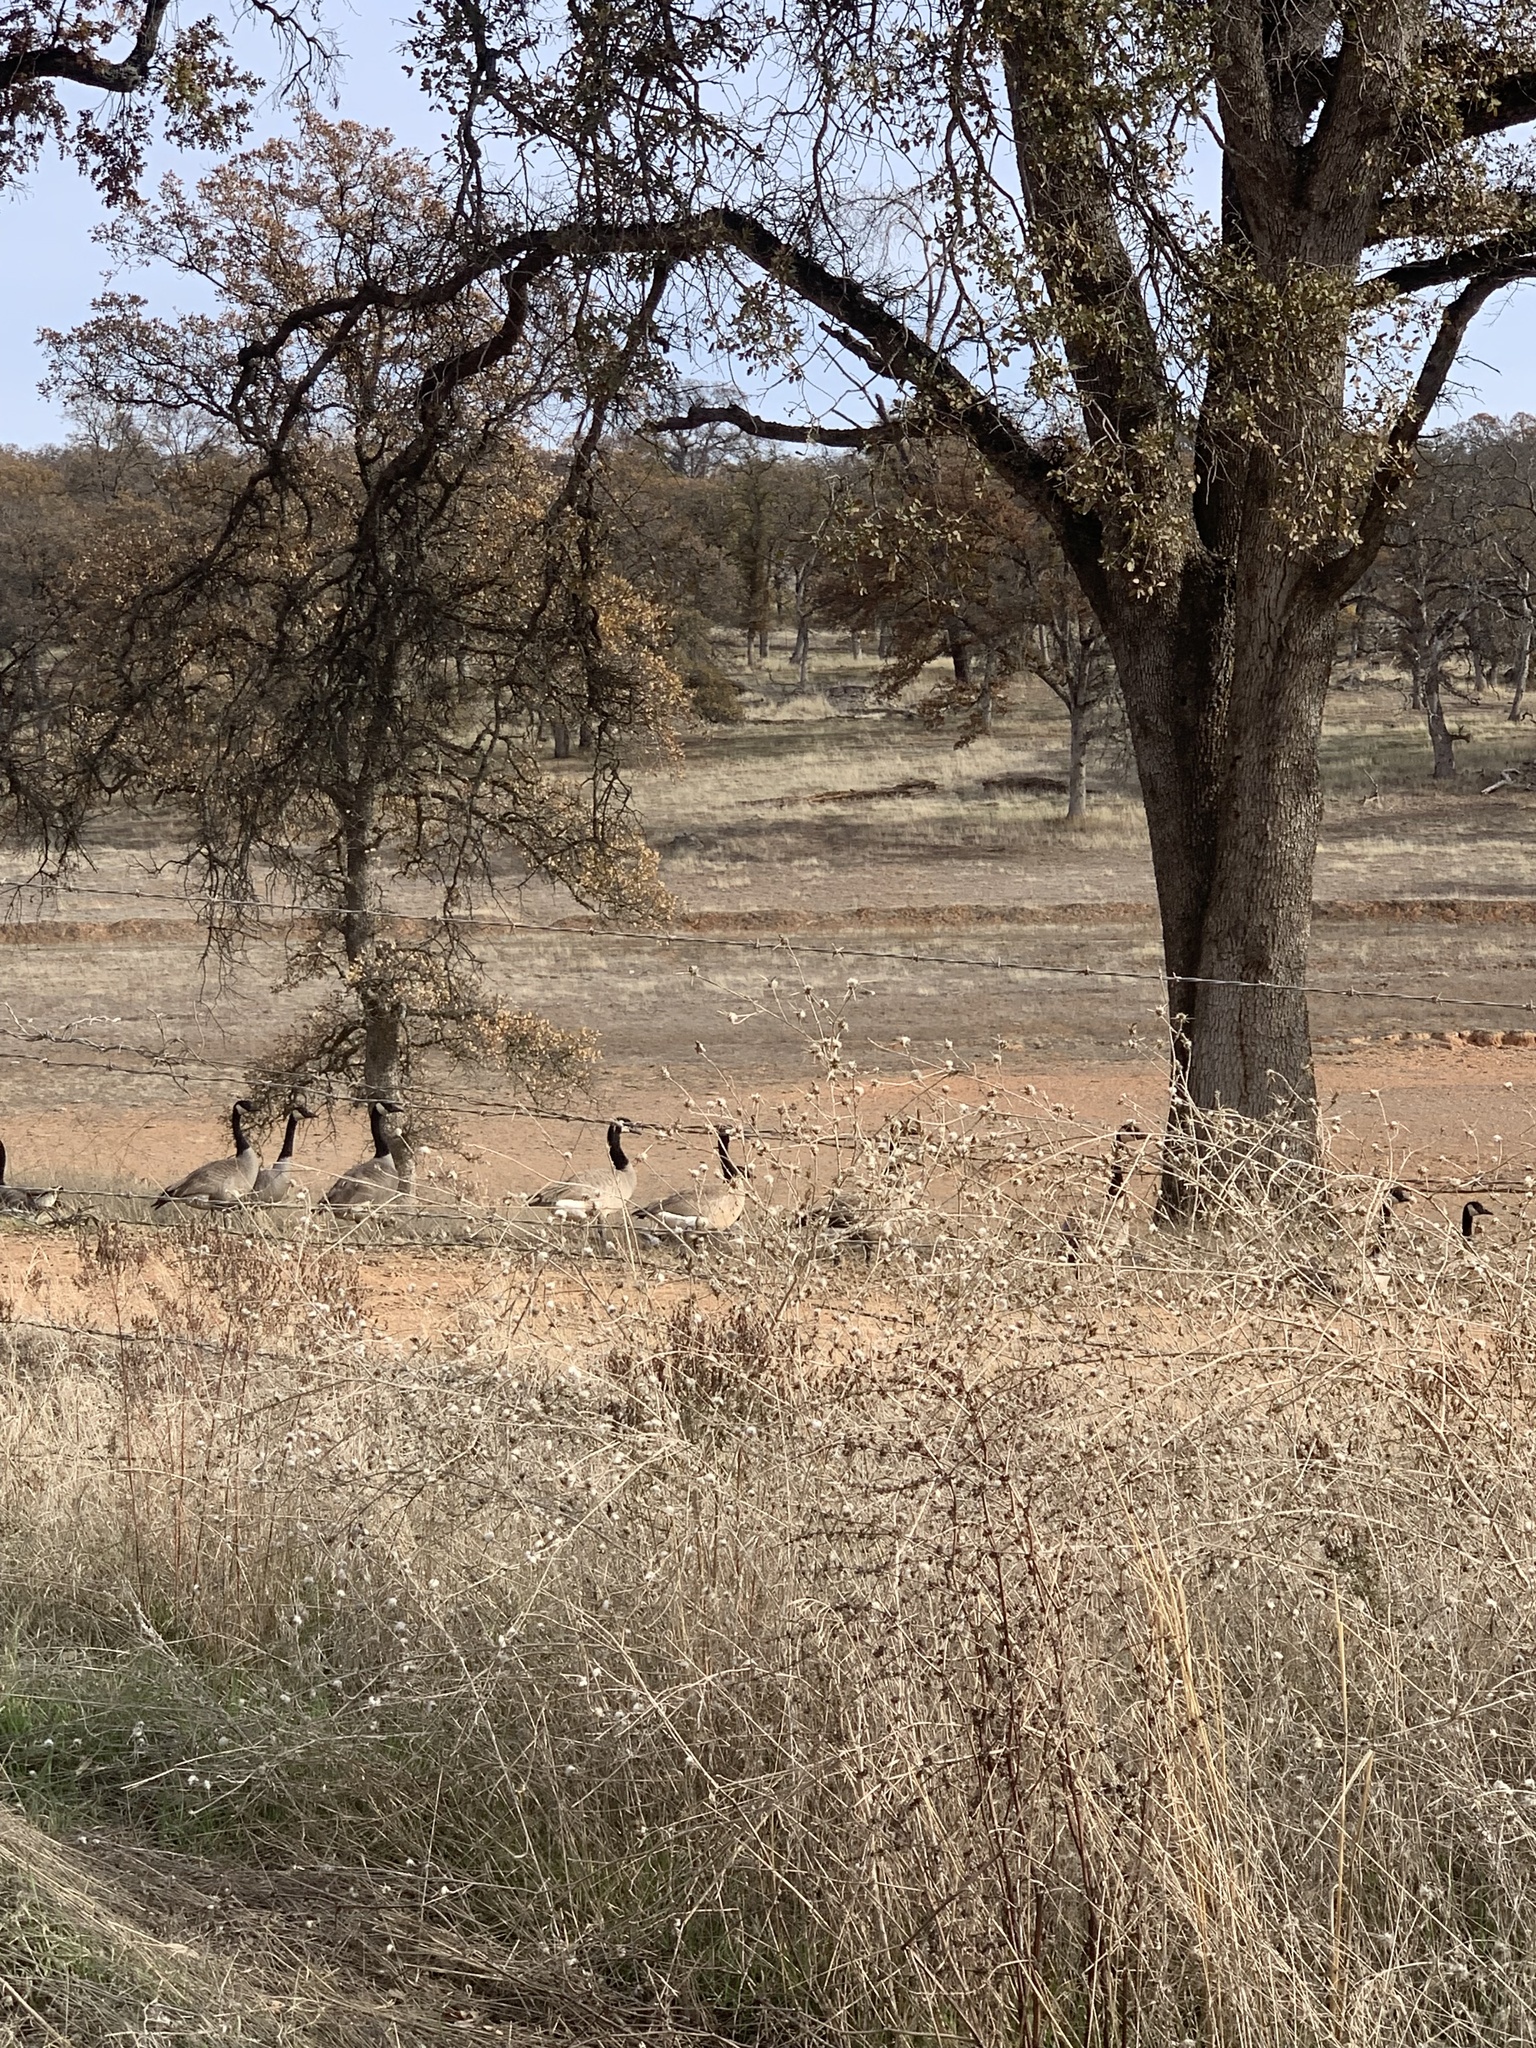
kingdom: Animalia
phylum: Chordata
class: Aves
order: Anseriformes
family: Anatidae
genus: Branta
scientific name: Branta canadensis
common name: Canada goose
